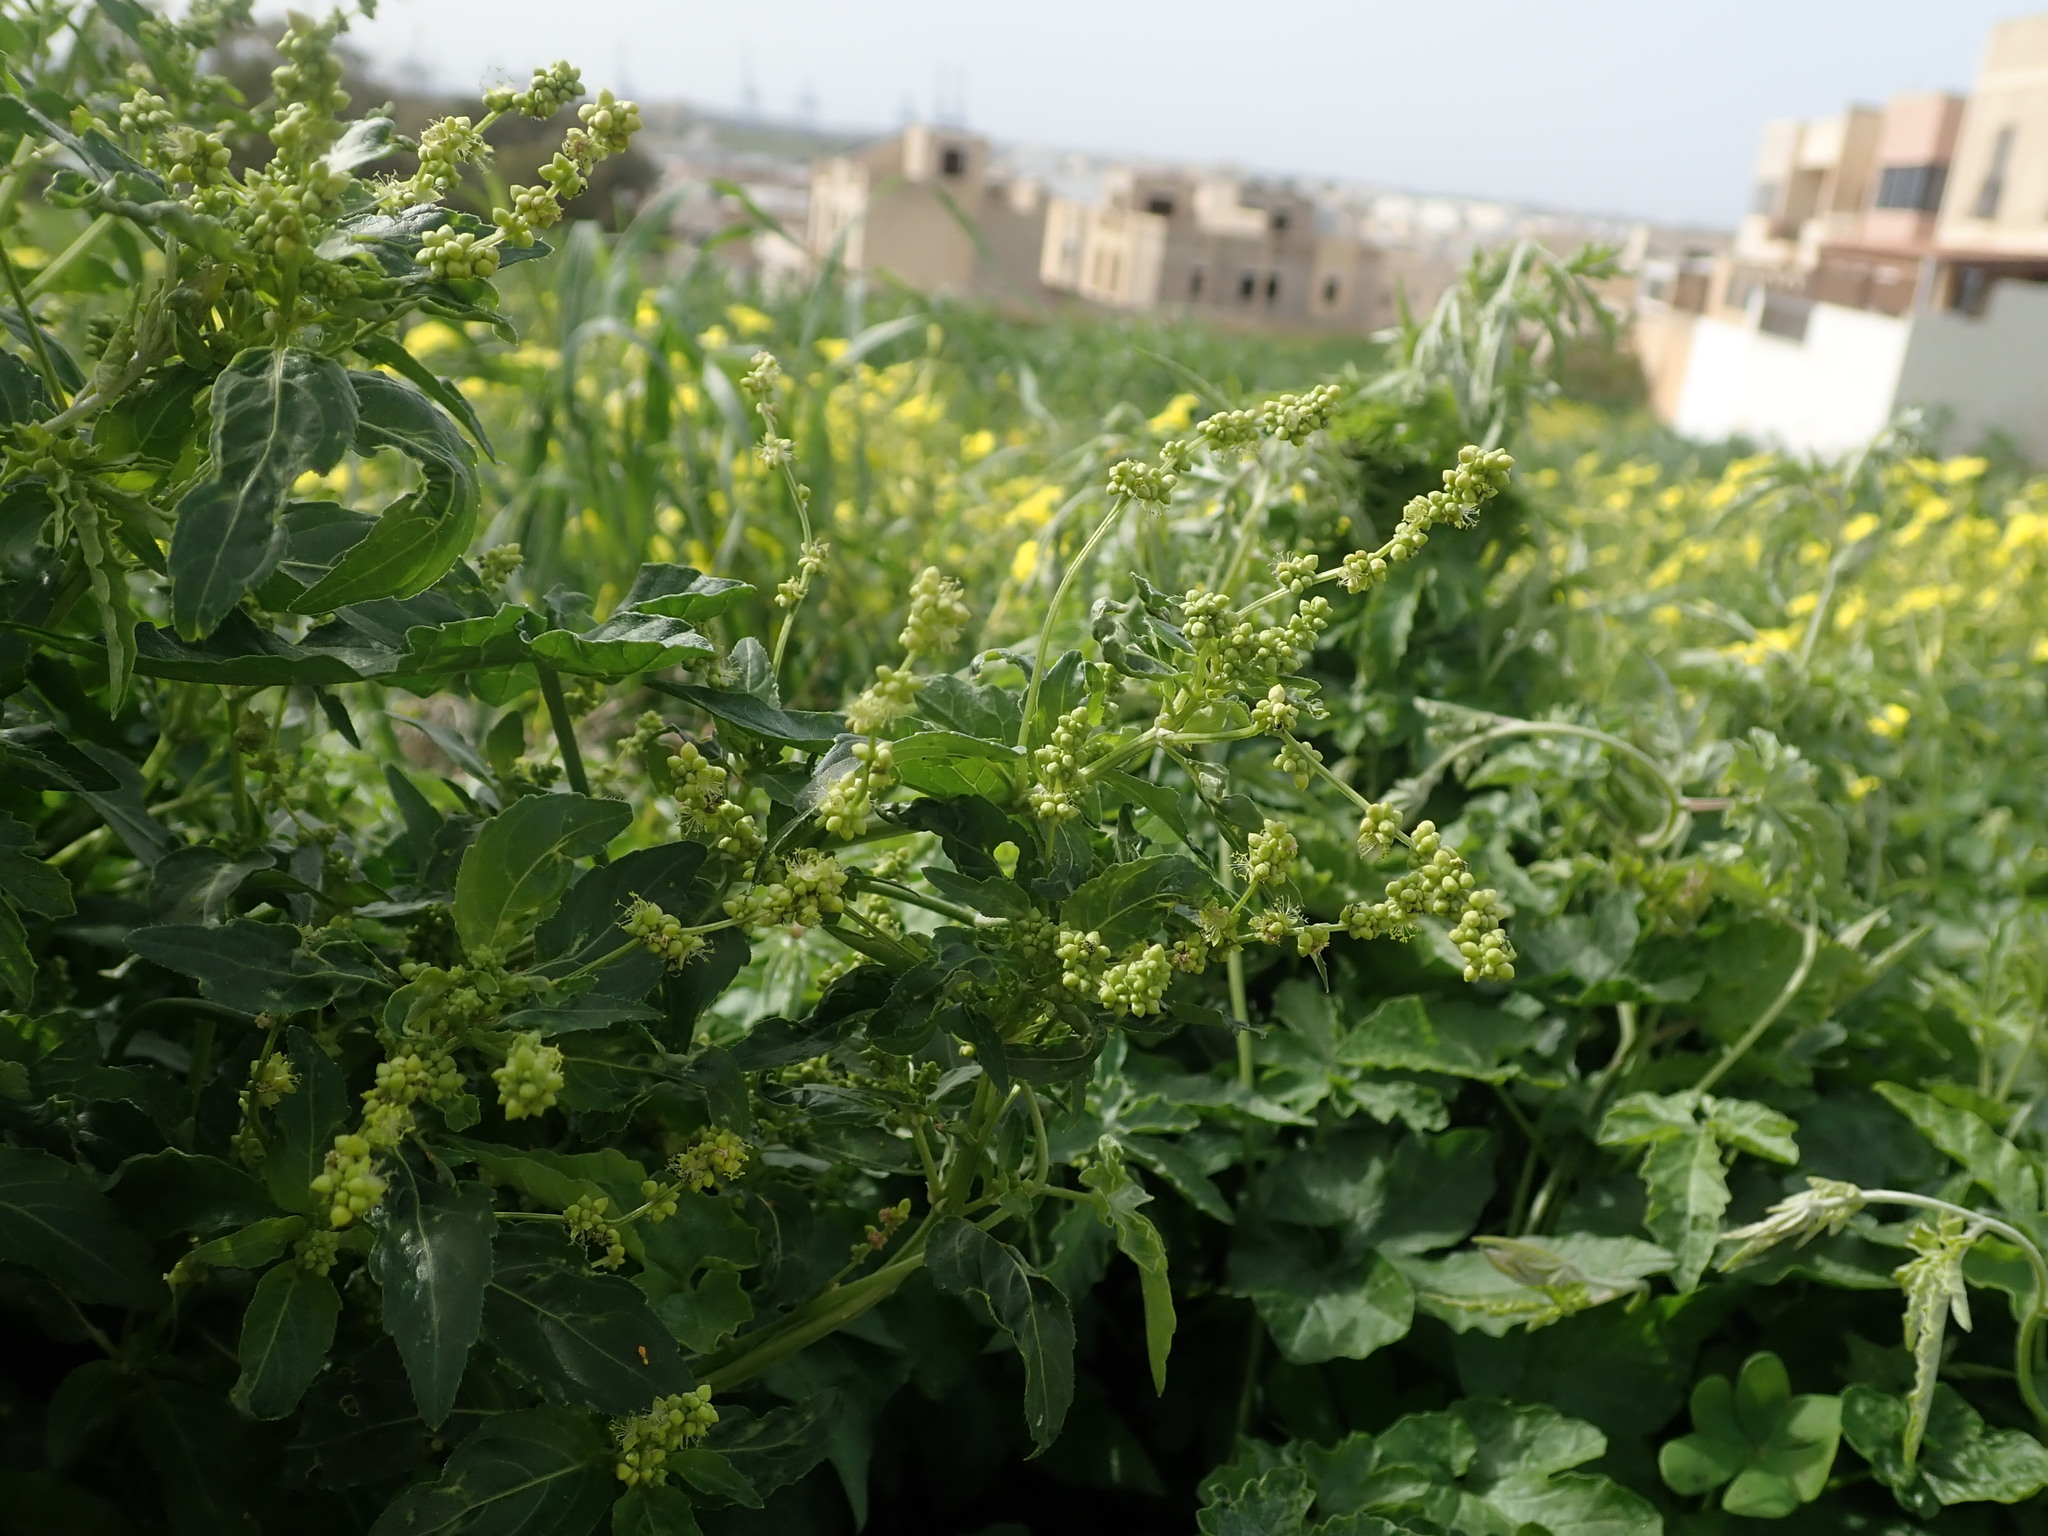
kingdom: Plantae
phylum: Tracheophyta
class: Magnoliopsida
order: Malpighiales
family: Euphorbiaceae
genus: Mercurialis
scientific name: Mercurialis annua
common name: Annual mercury
